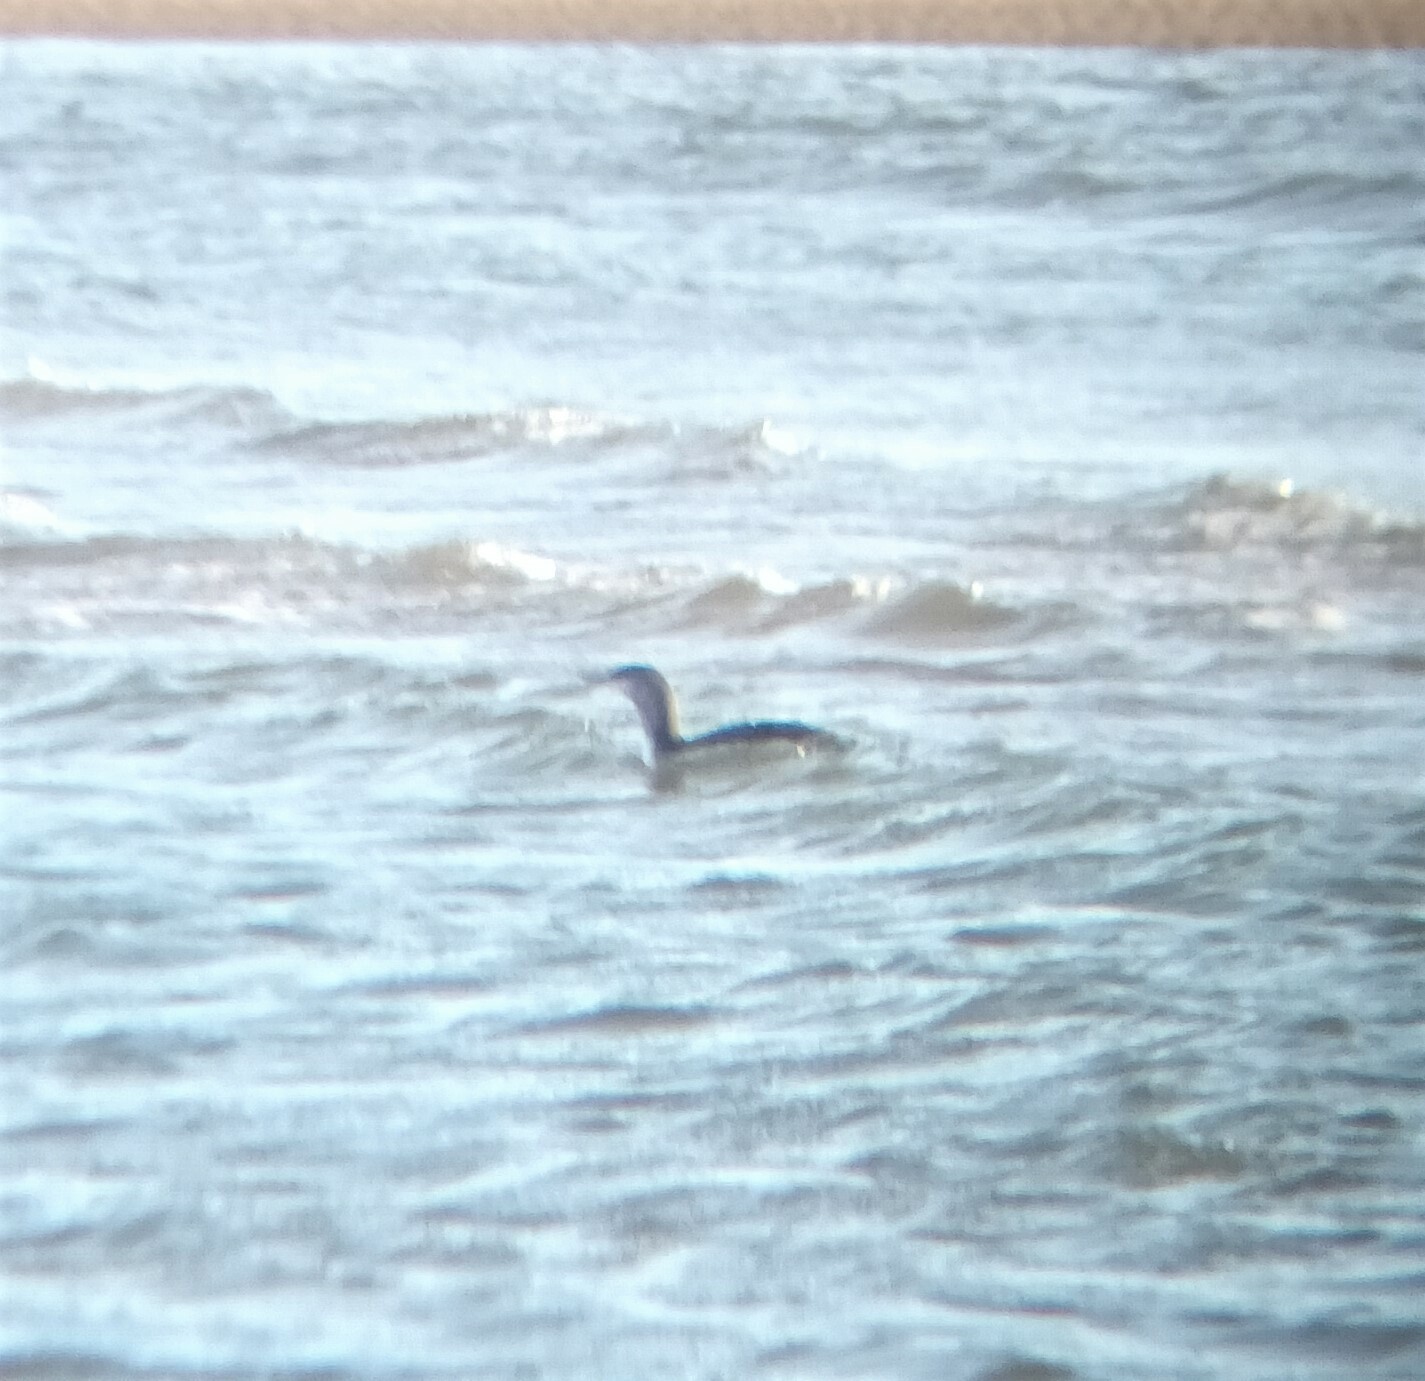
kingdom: Animalia
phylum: Chordata
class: Aves
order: Gaviiformes
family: Gaviidae
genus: Gavia
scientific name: Gavia stellata
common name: Red-throated loon
